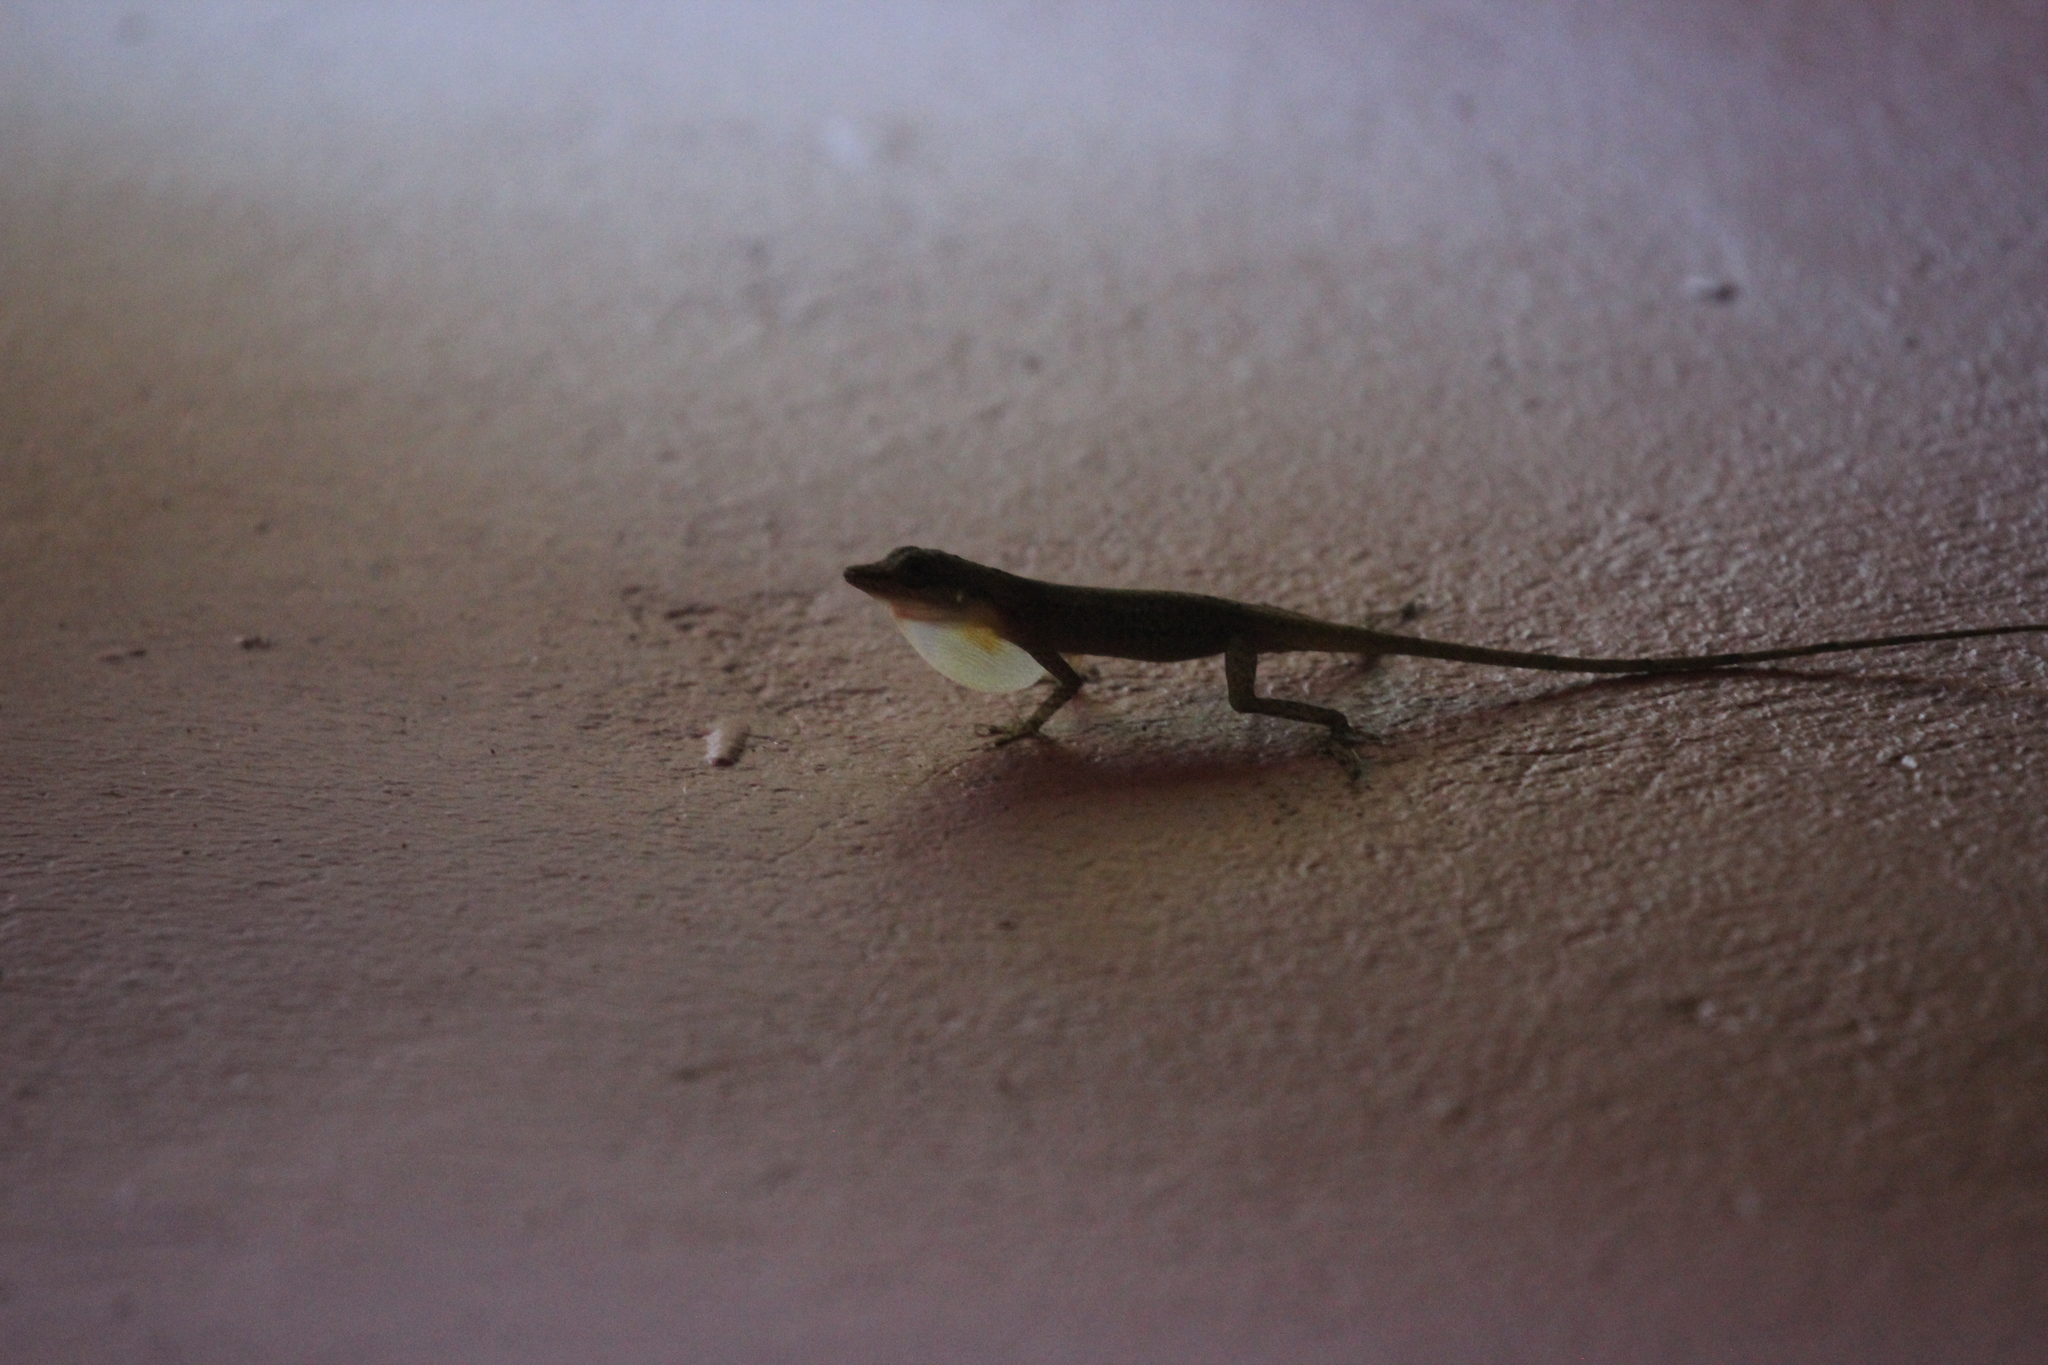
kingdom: Animalia
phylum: Chordata
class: Squamata
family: Dactyloidae
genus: Anolis
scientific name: Anolis limifrons
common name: Border anole
